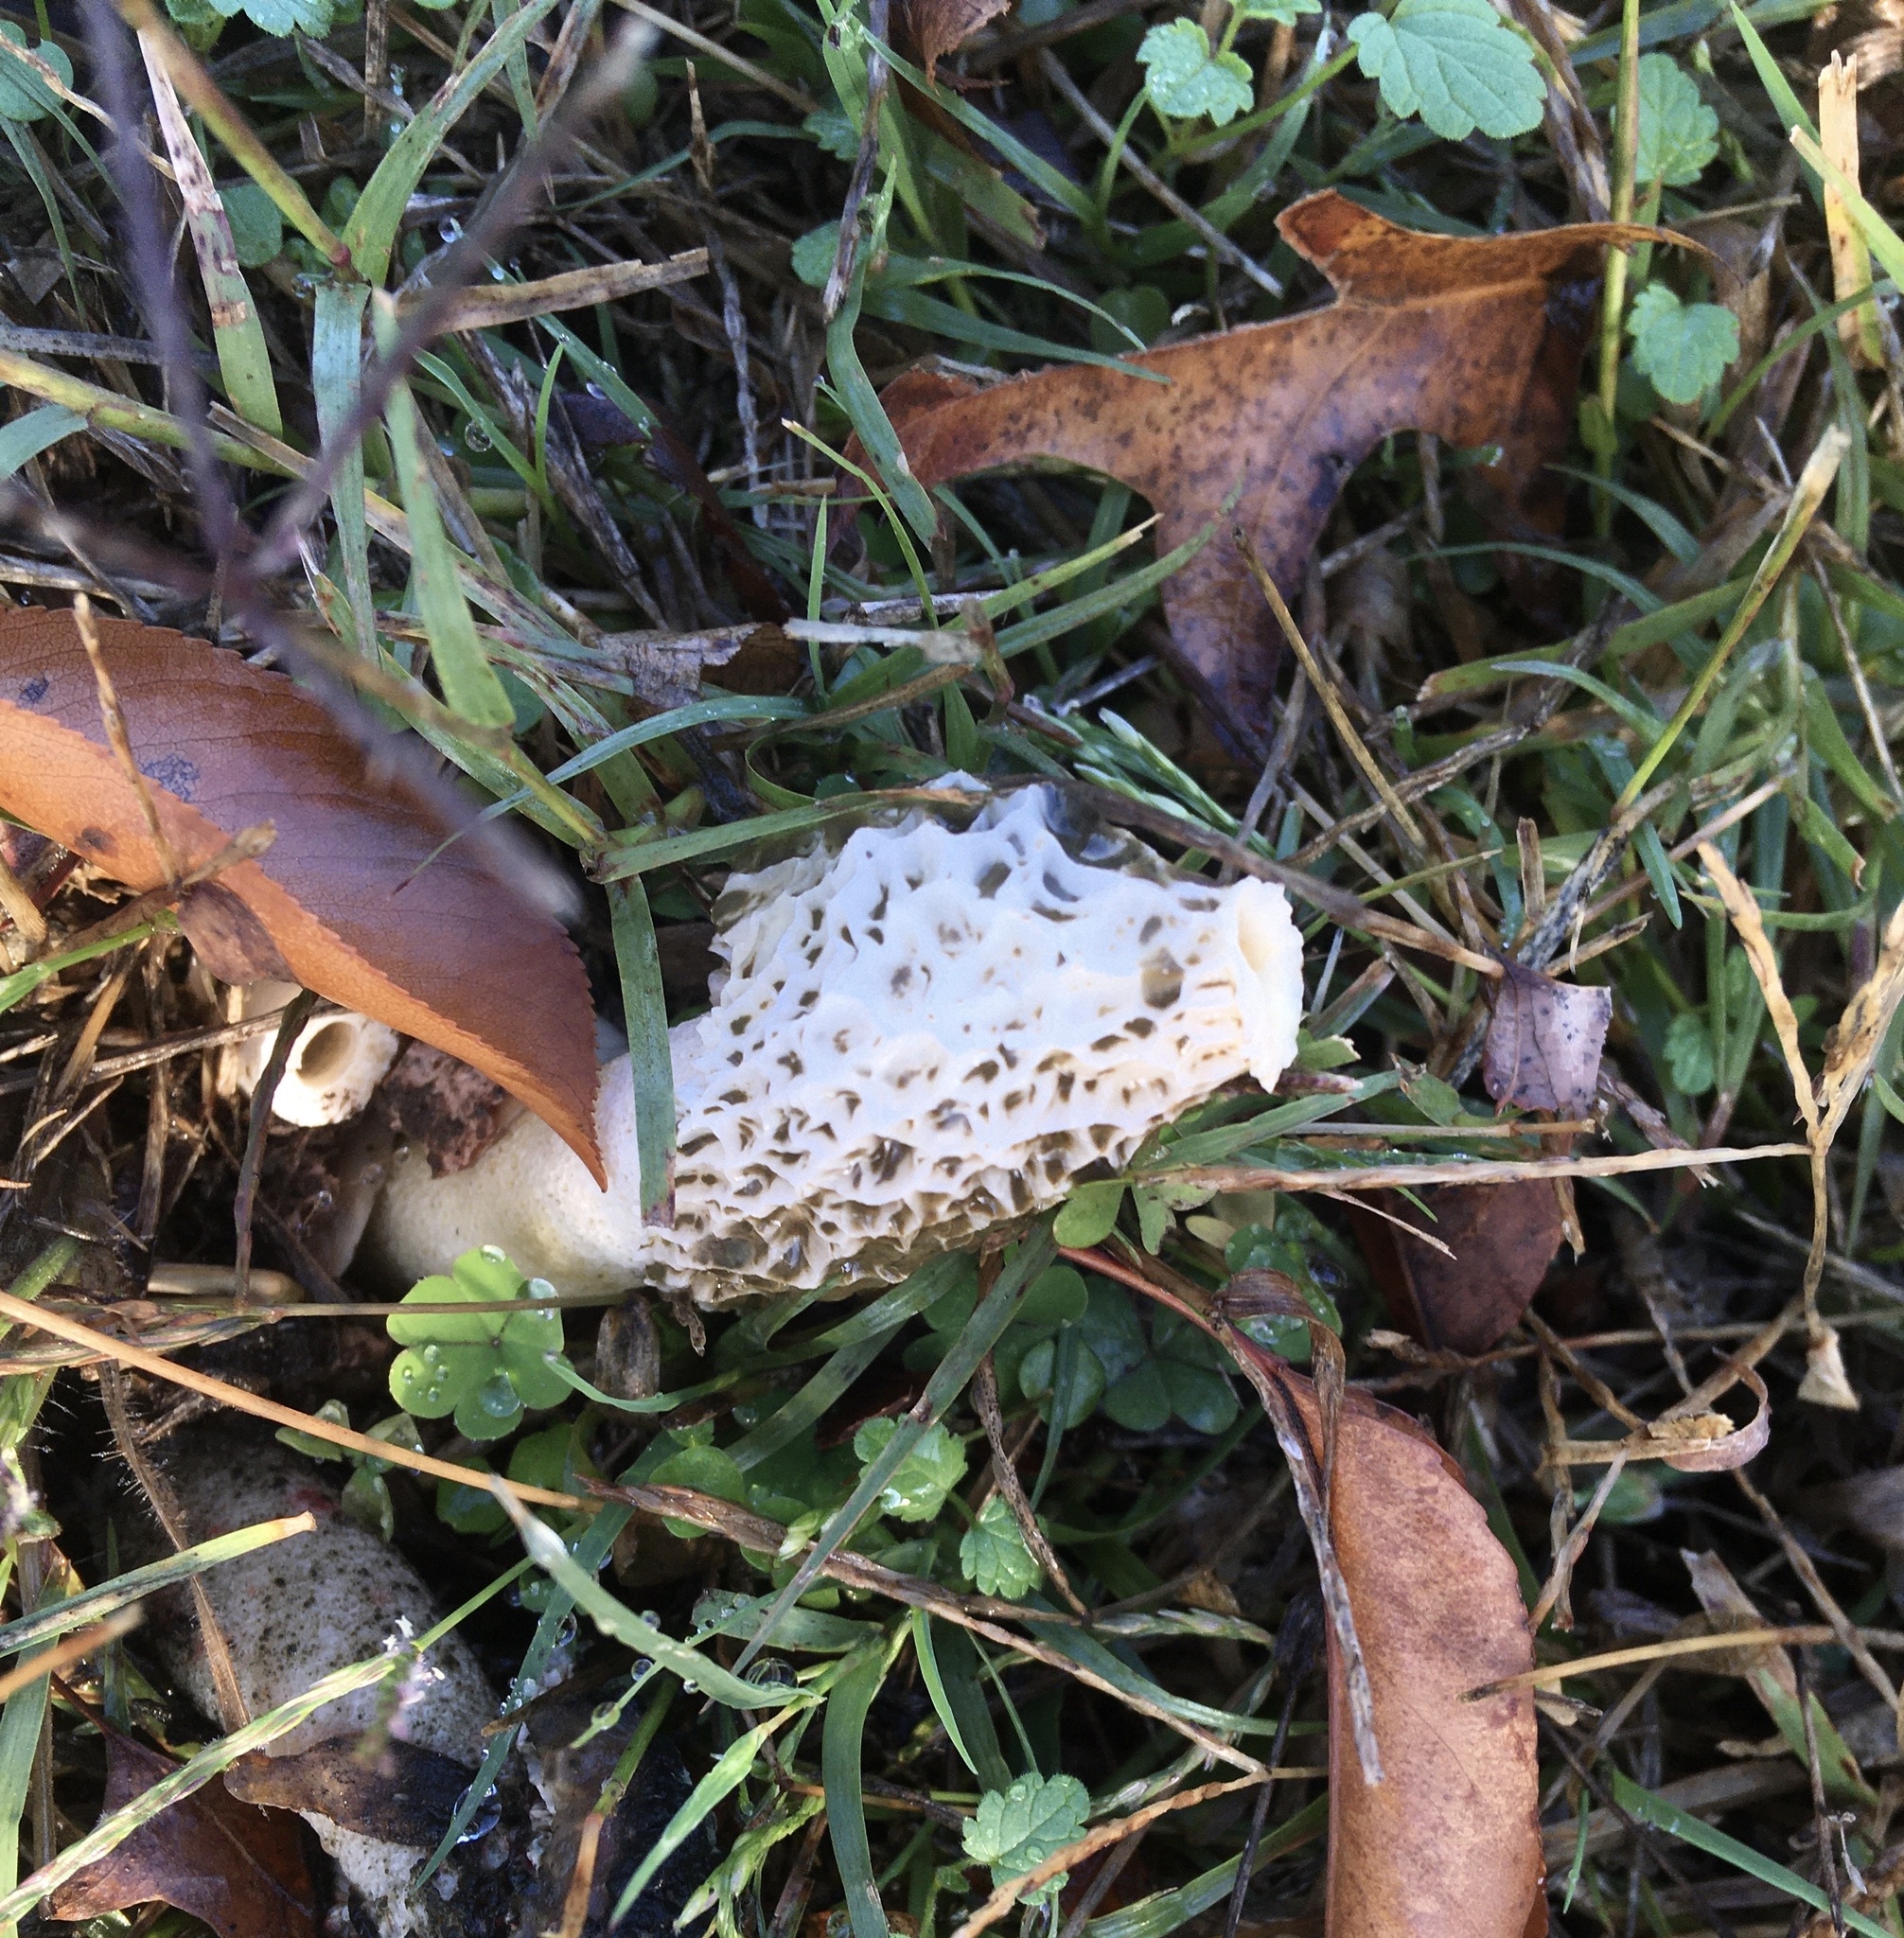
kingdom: Fungi
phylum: Basidiomycota
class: Agaricomycetes
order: Phallales
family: Phallaceae
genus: Phallus
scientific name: Phallus hadriani
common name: Sand stinkhorn
